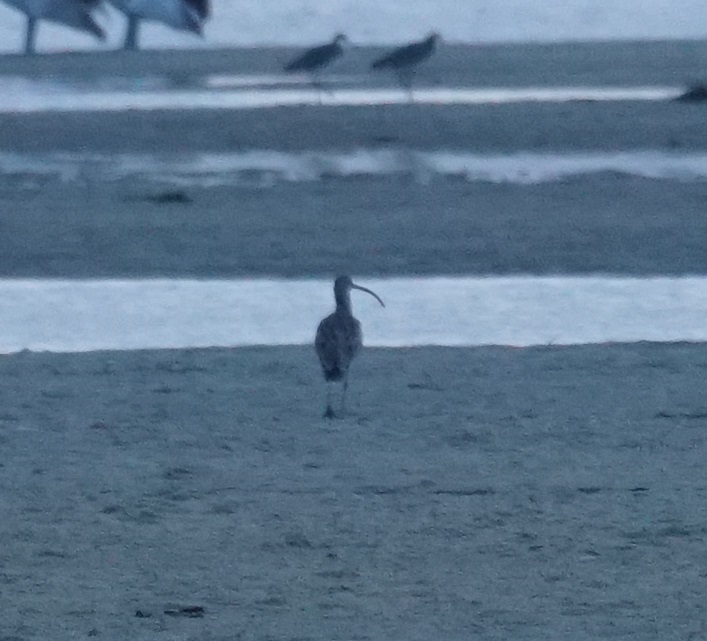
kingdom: Animalia
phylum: Chordata
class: Aves
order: Charadriiformes
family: Scolopacidae
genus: Numenius
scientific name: Numenius madagascariensis
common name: Far eastern curlew
